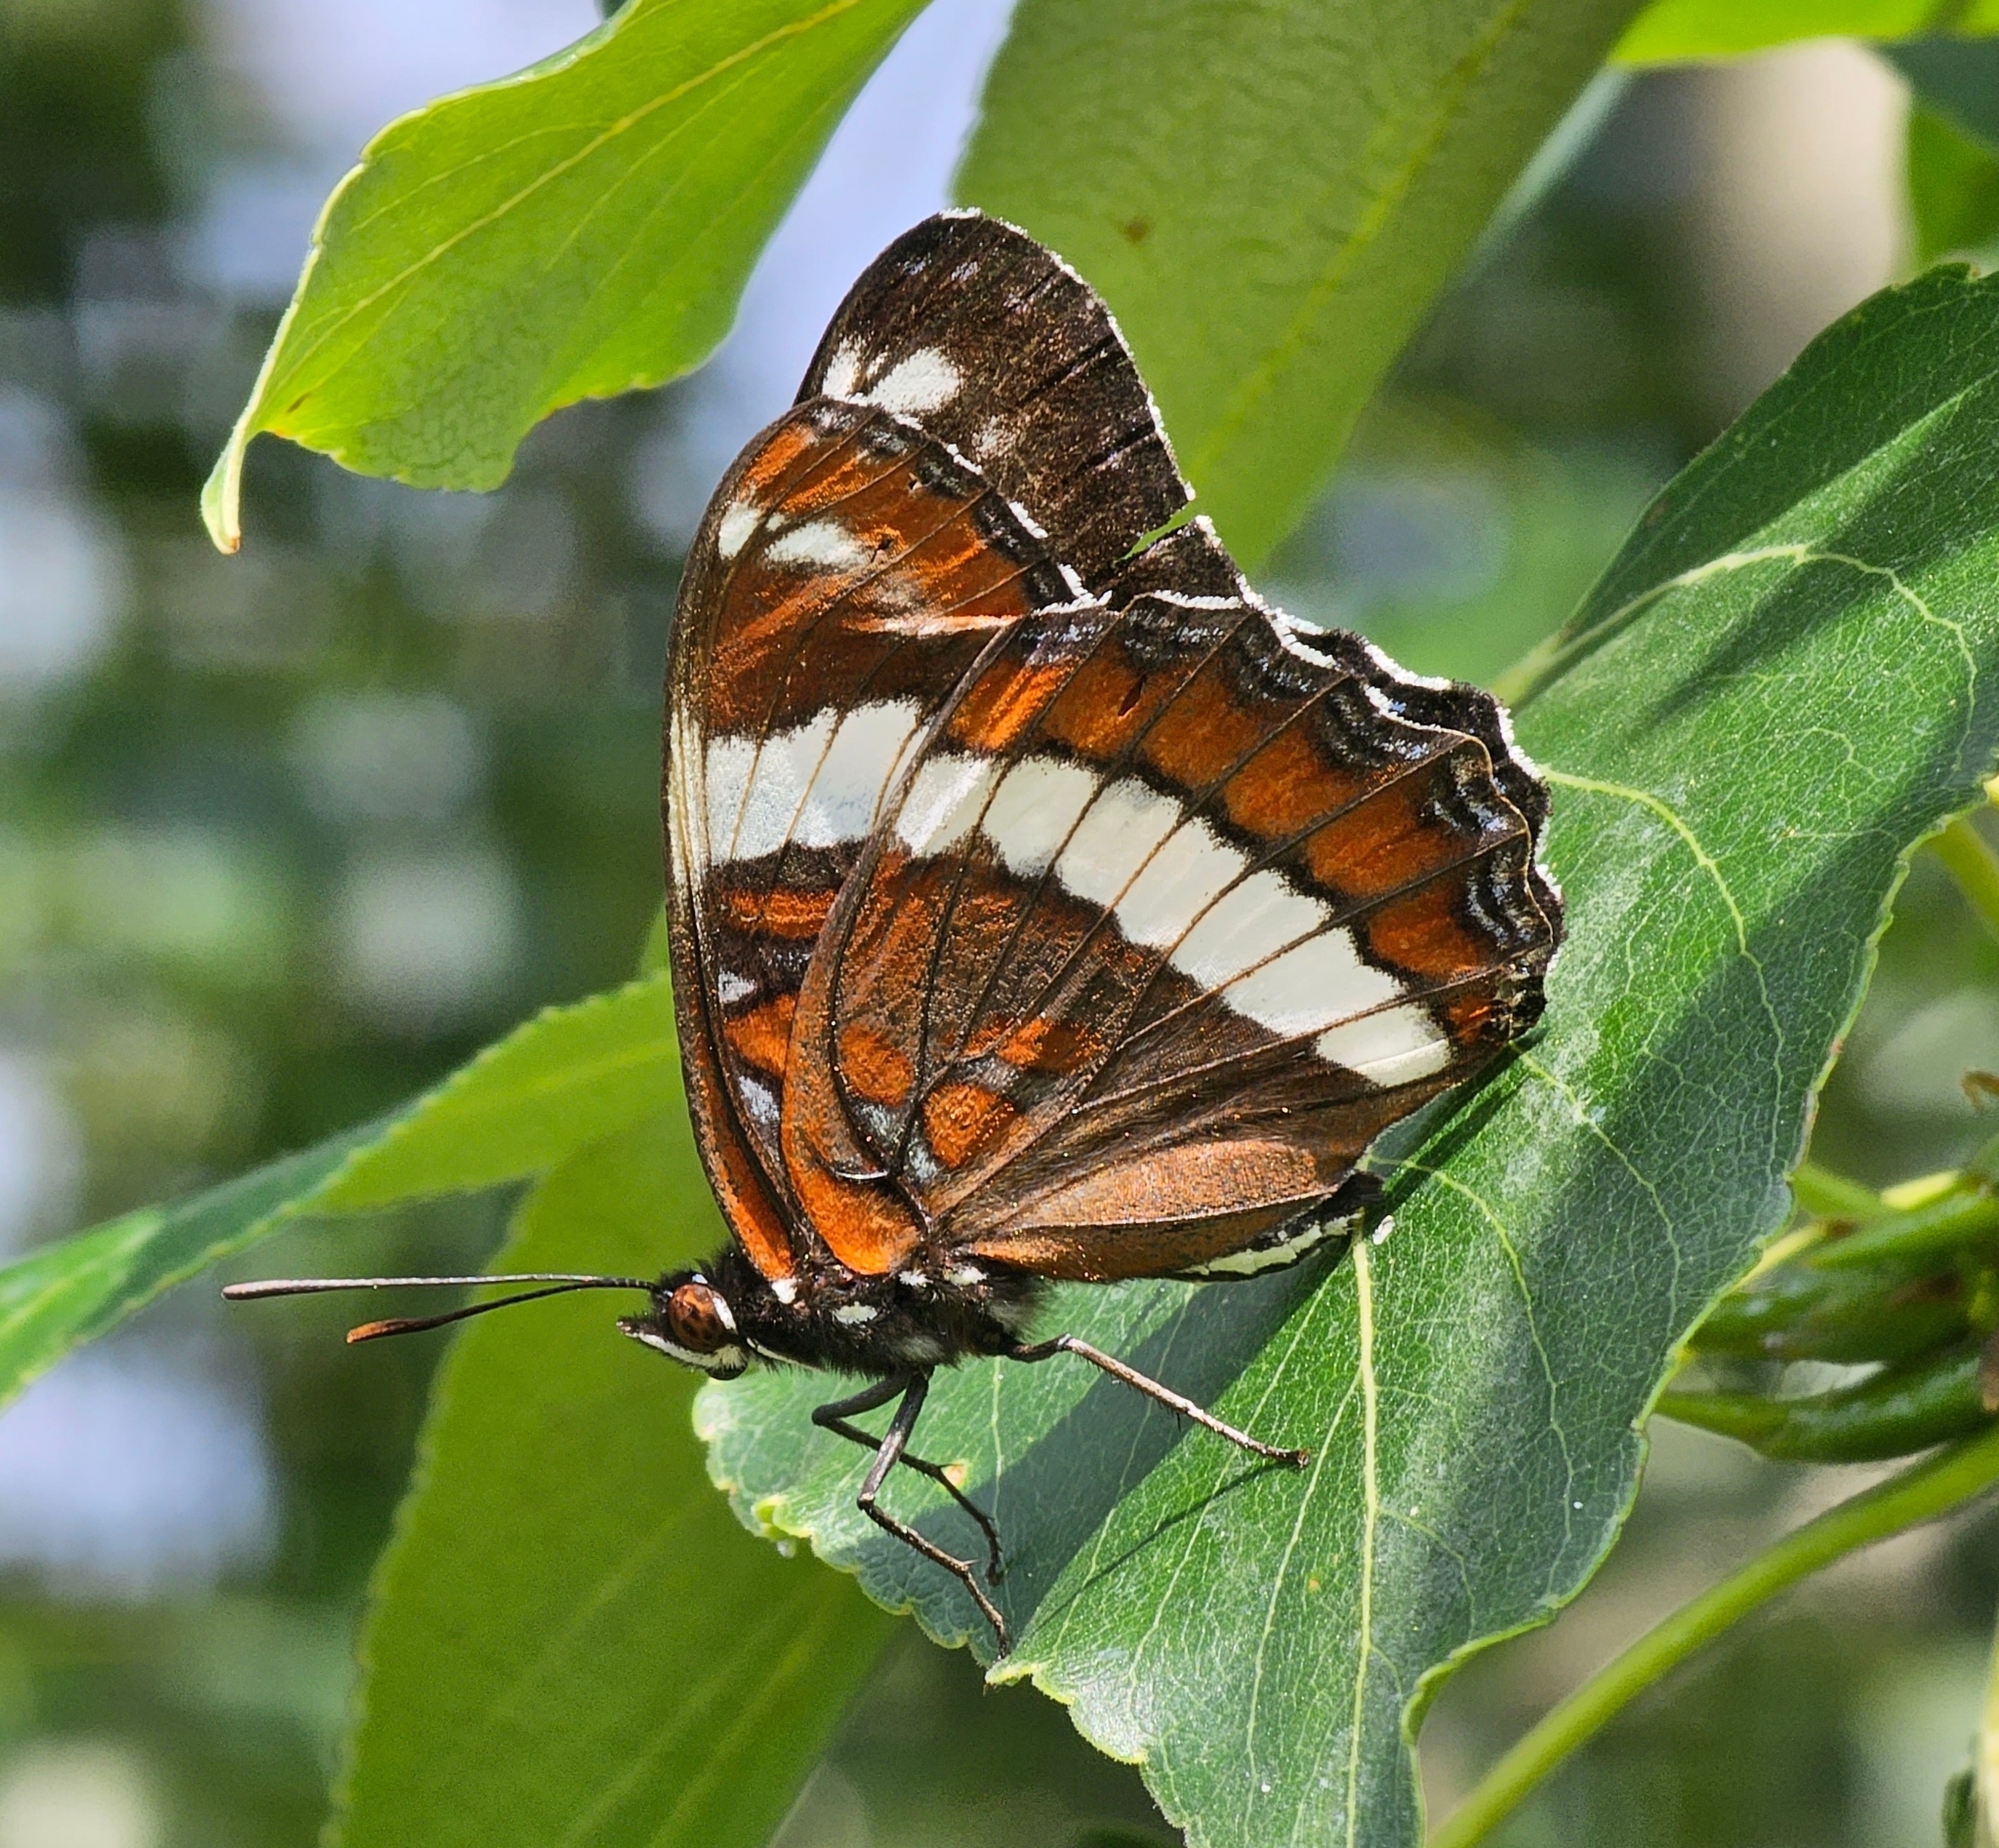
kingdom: Animalia
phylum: Arthropoda
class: Insecta
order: Lepidoptera
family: Nymphalidae
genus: Limenitis
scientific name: Limenitis arthemis
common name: Red-spotted admiral
